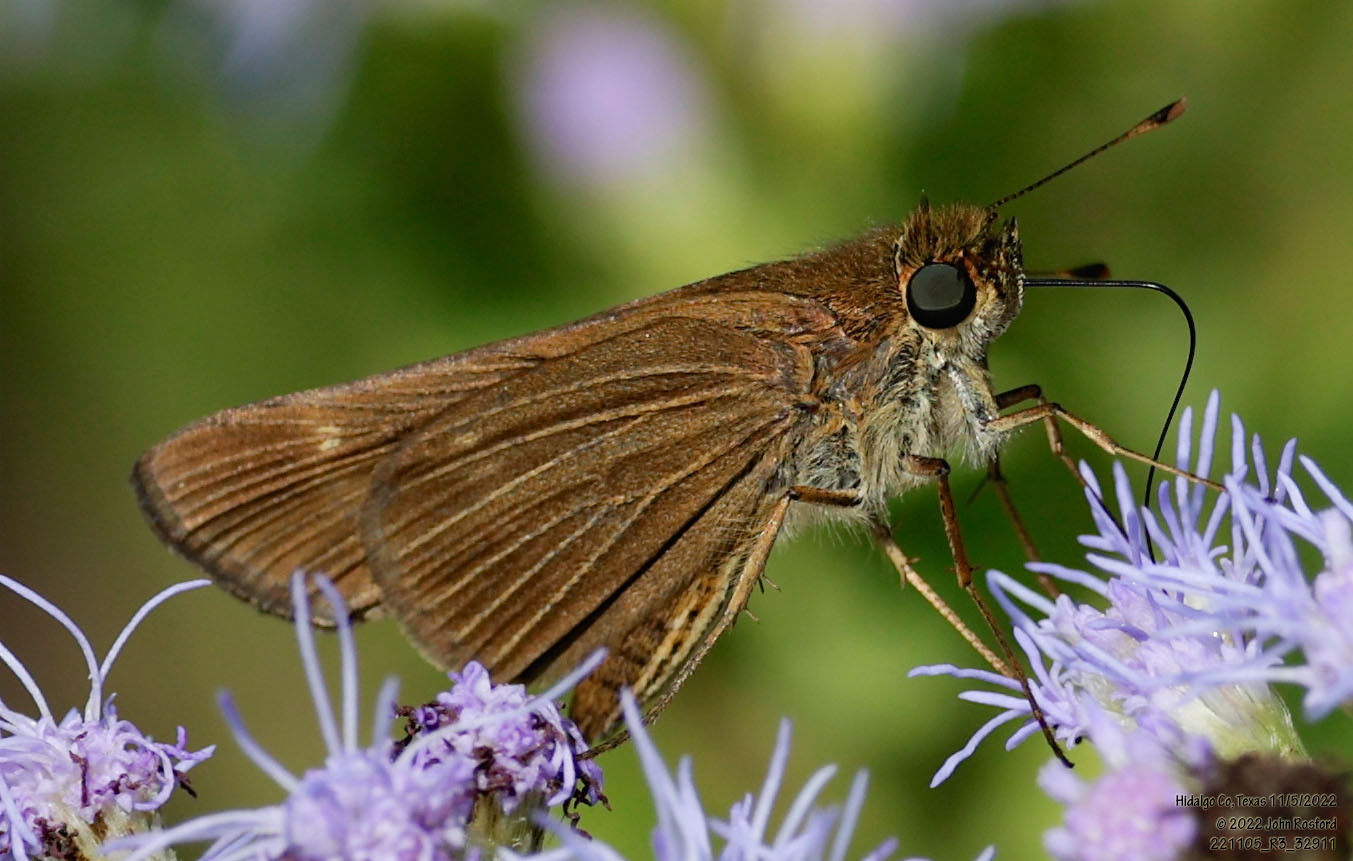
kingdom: Animalia
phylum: Arthropoda
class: Insecta
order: Lepidoptera
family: Hesperiidae
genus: Panoquina
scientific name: Panoquina ocola
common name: Ocola skipper
